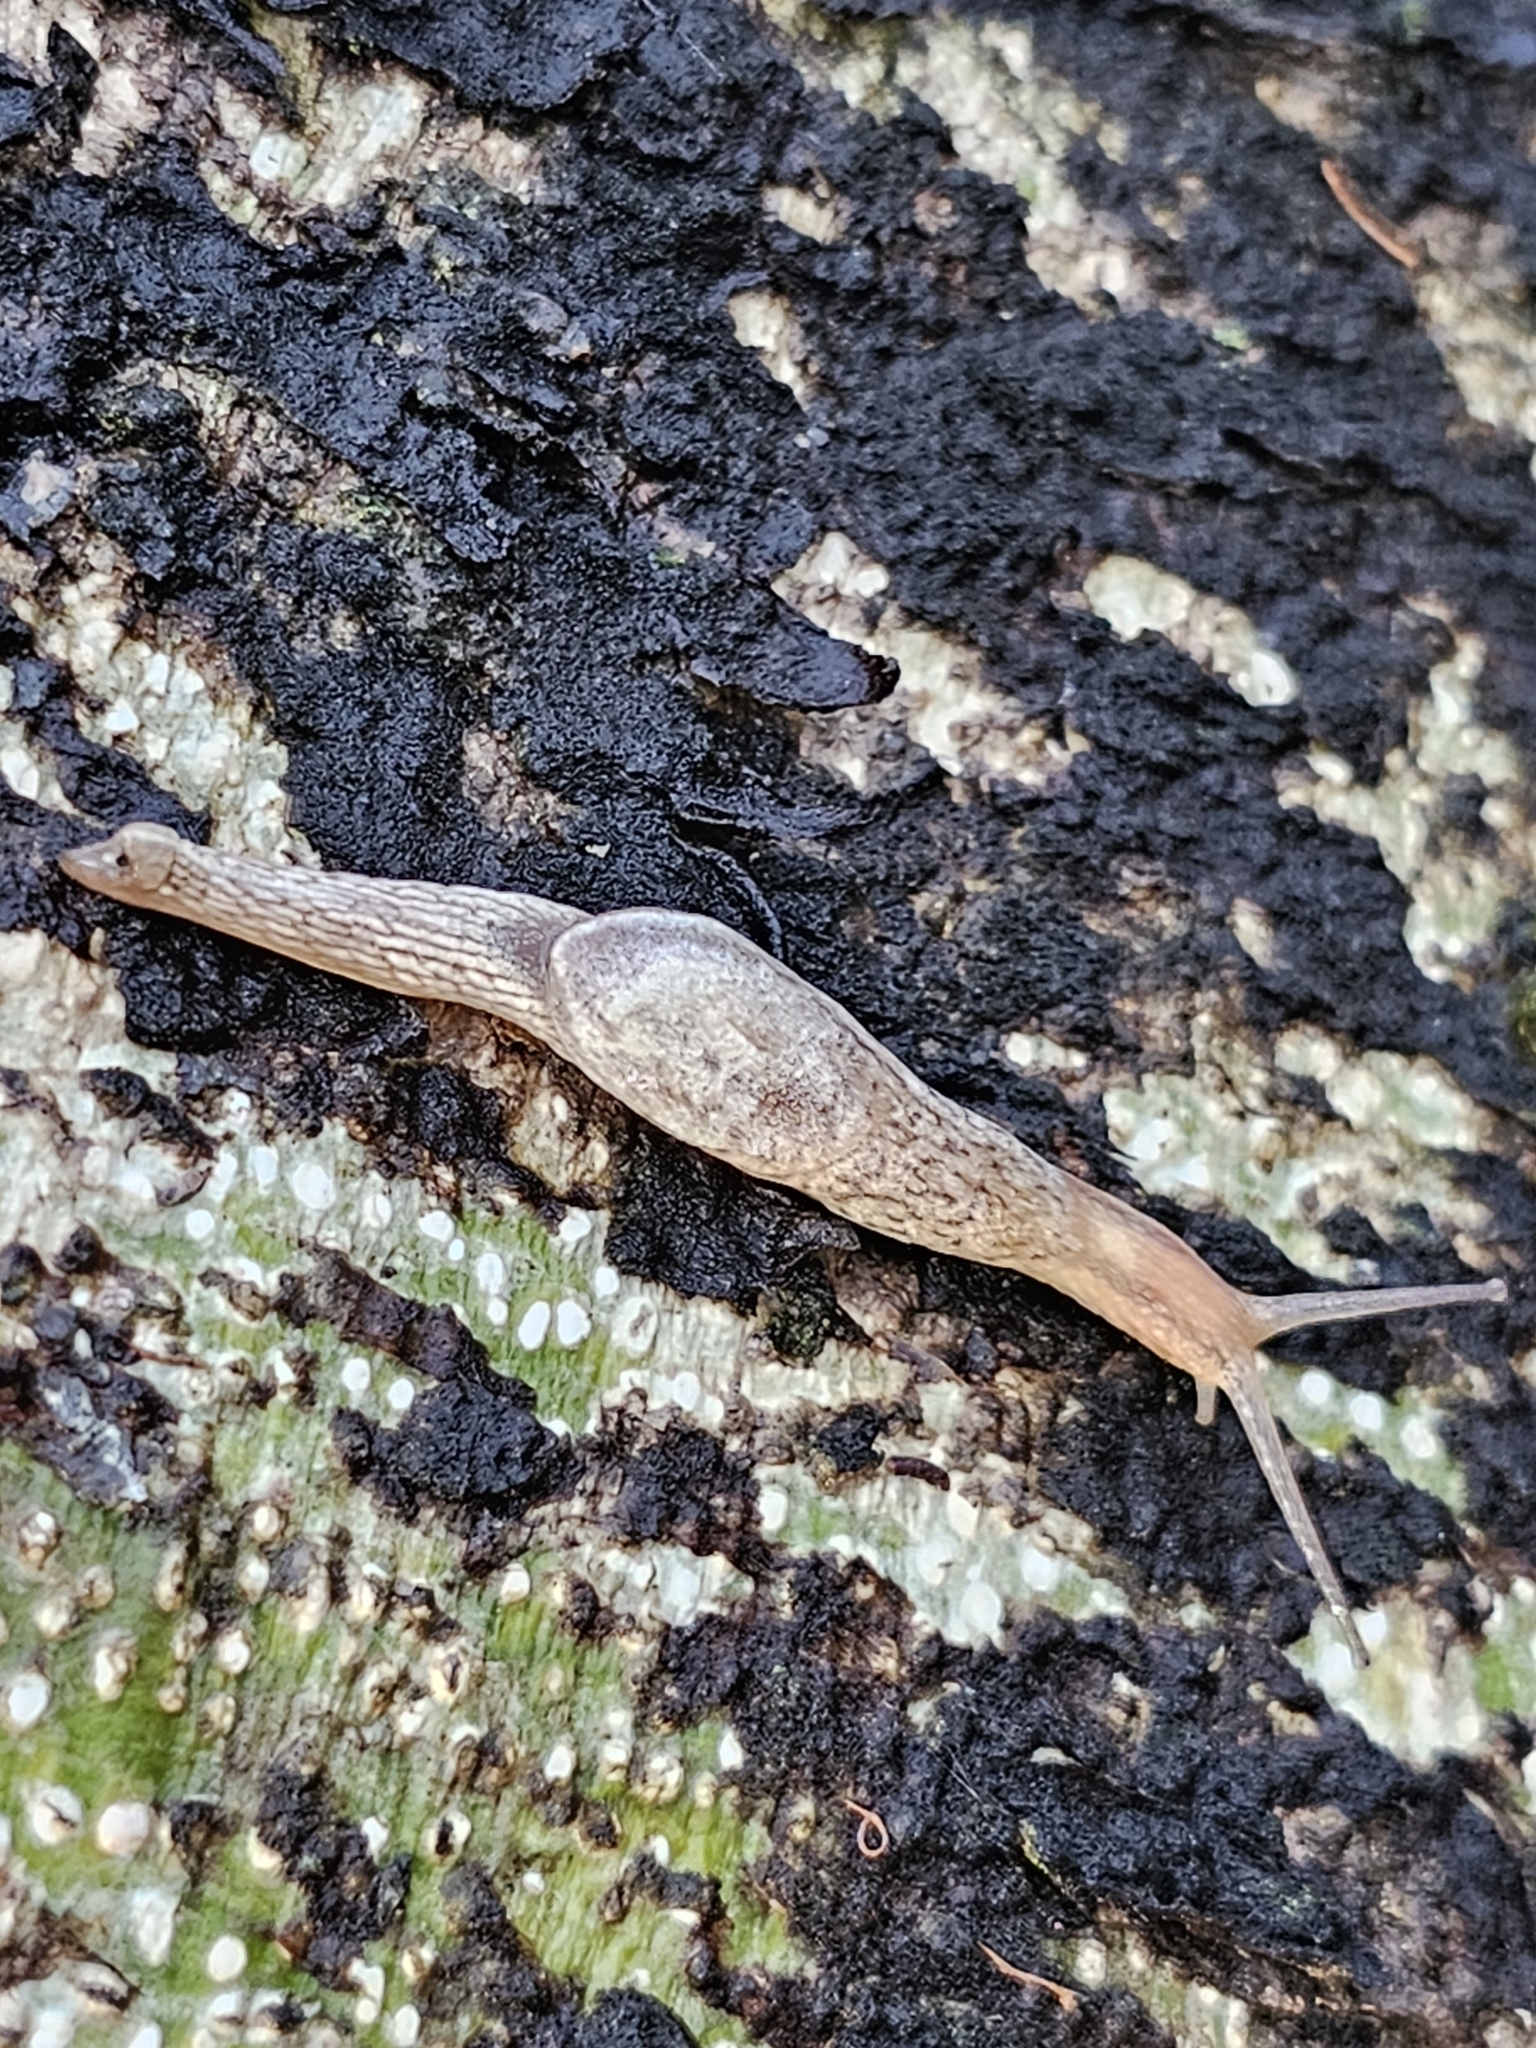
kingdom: Animalia
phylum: Mollusca
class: Gastropoda
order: Stylommatophora
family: Ariophantidae
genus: Parmarion
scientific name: Parmarion martensi
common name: Semi-slug
